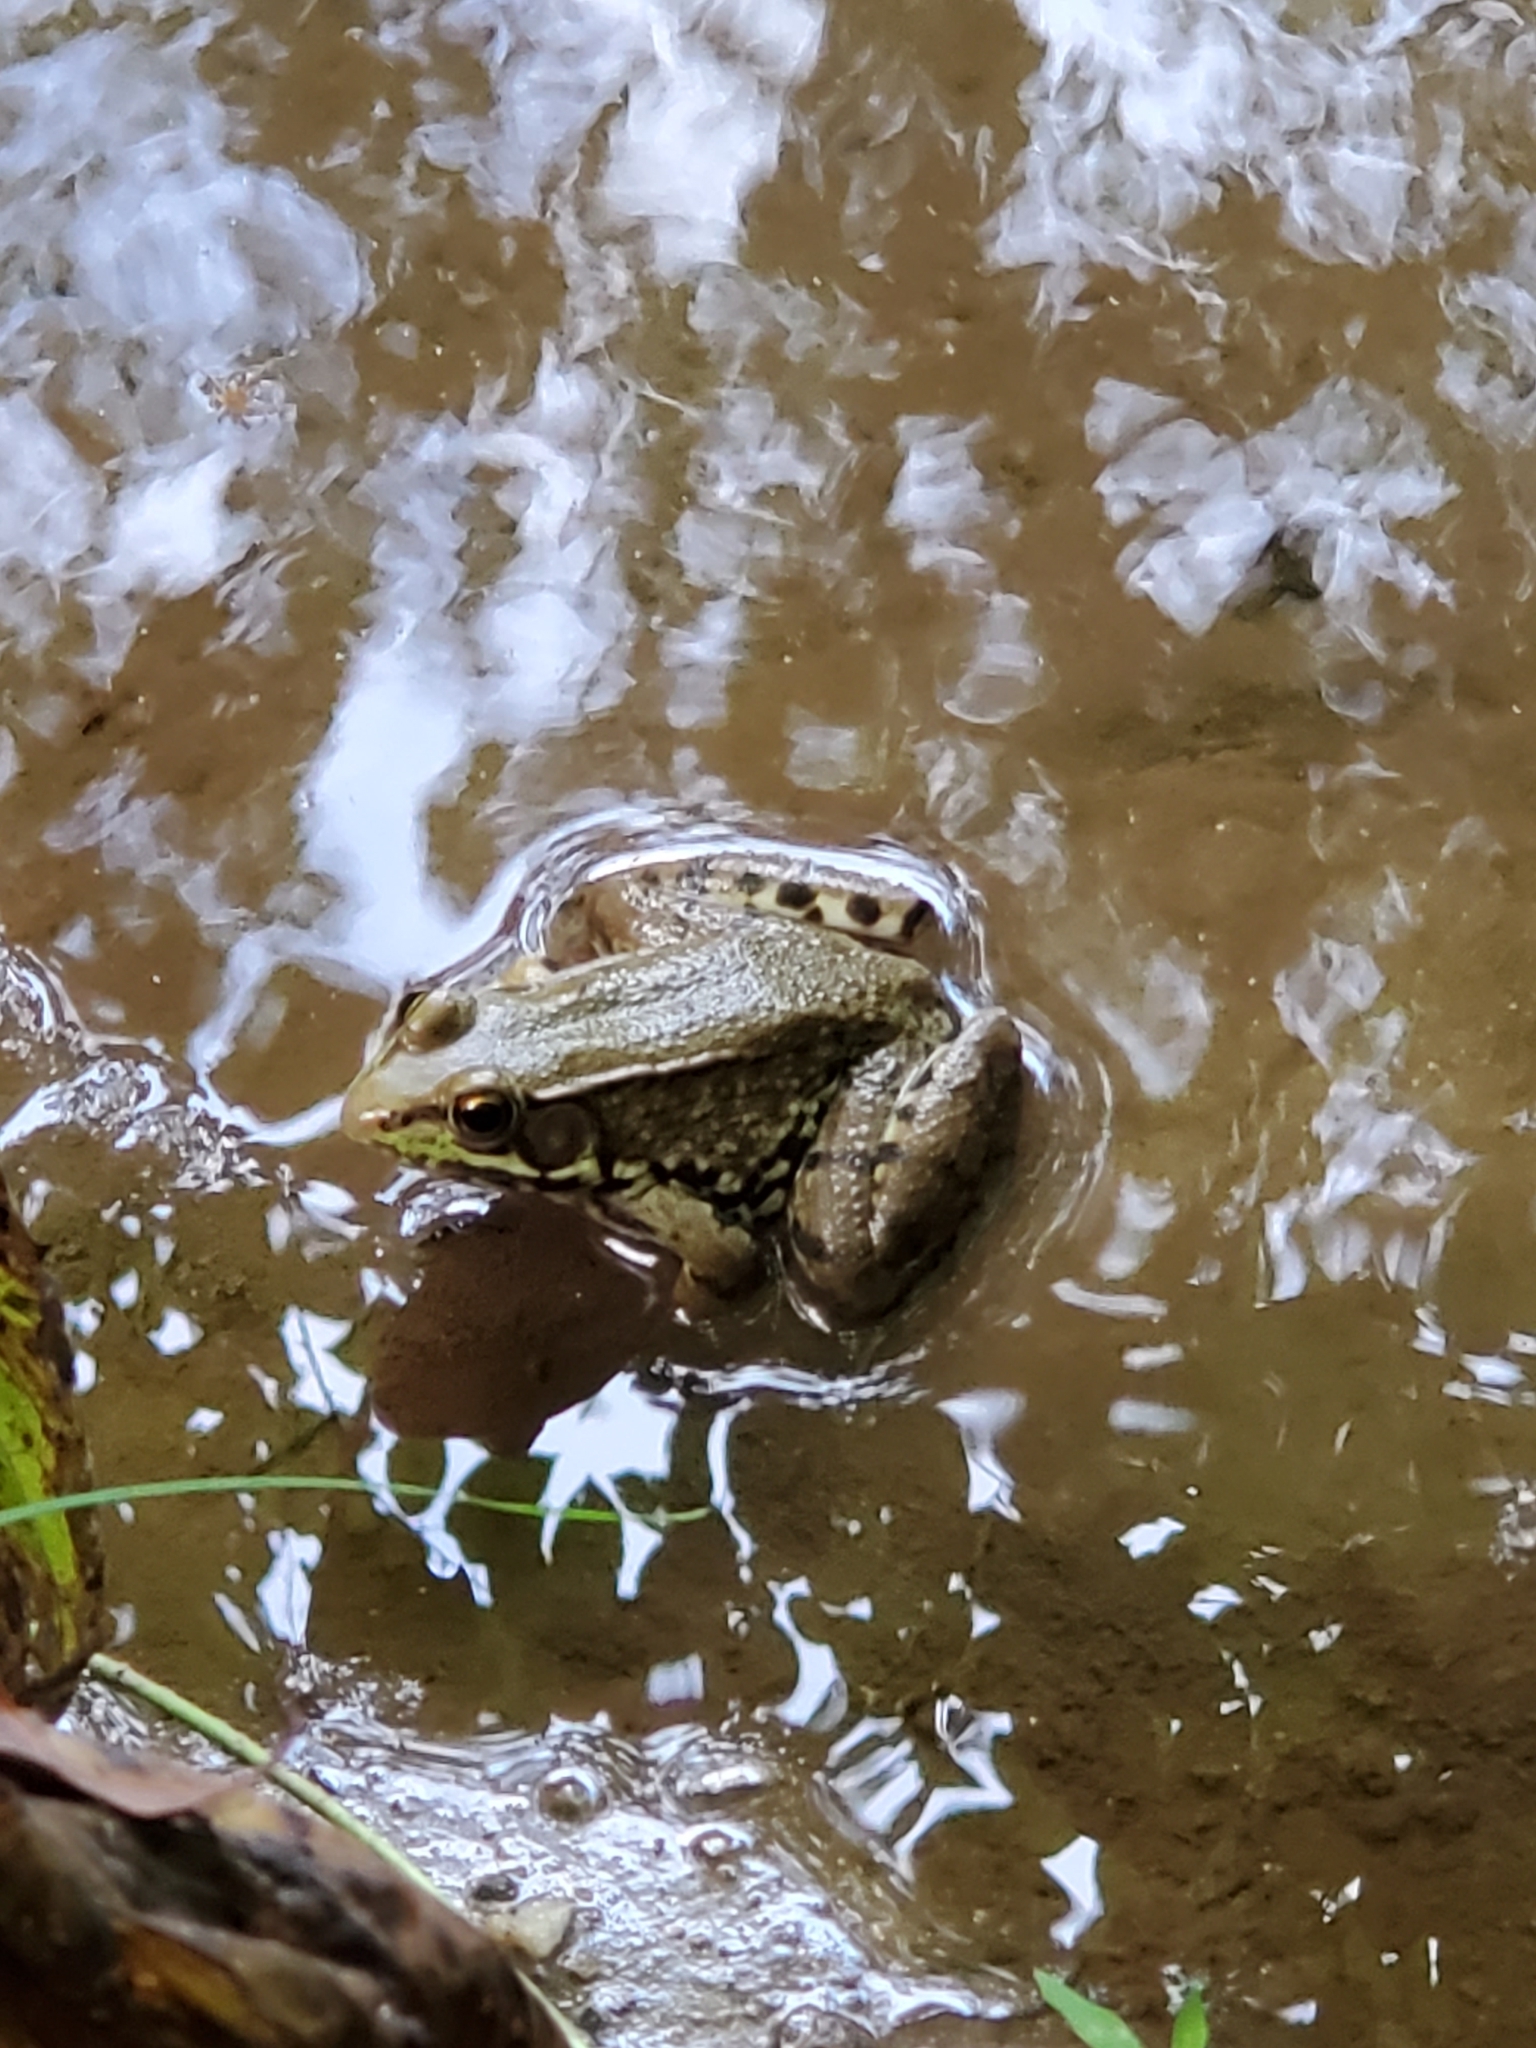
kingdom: Animalia
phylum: Chordata
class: Amphibia
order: Anura
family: Ranidae
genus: Lithobates
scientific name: Lithobates clamitans
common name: Green frog
